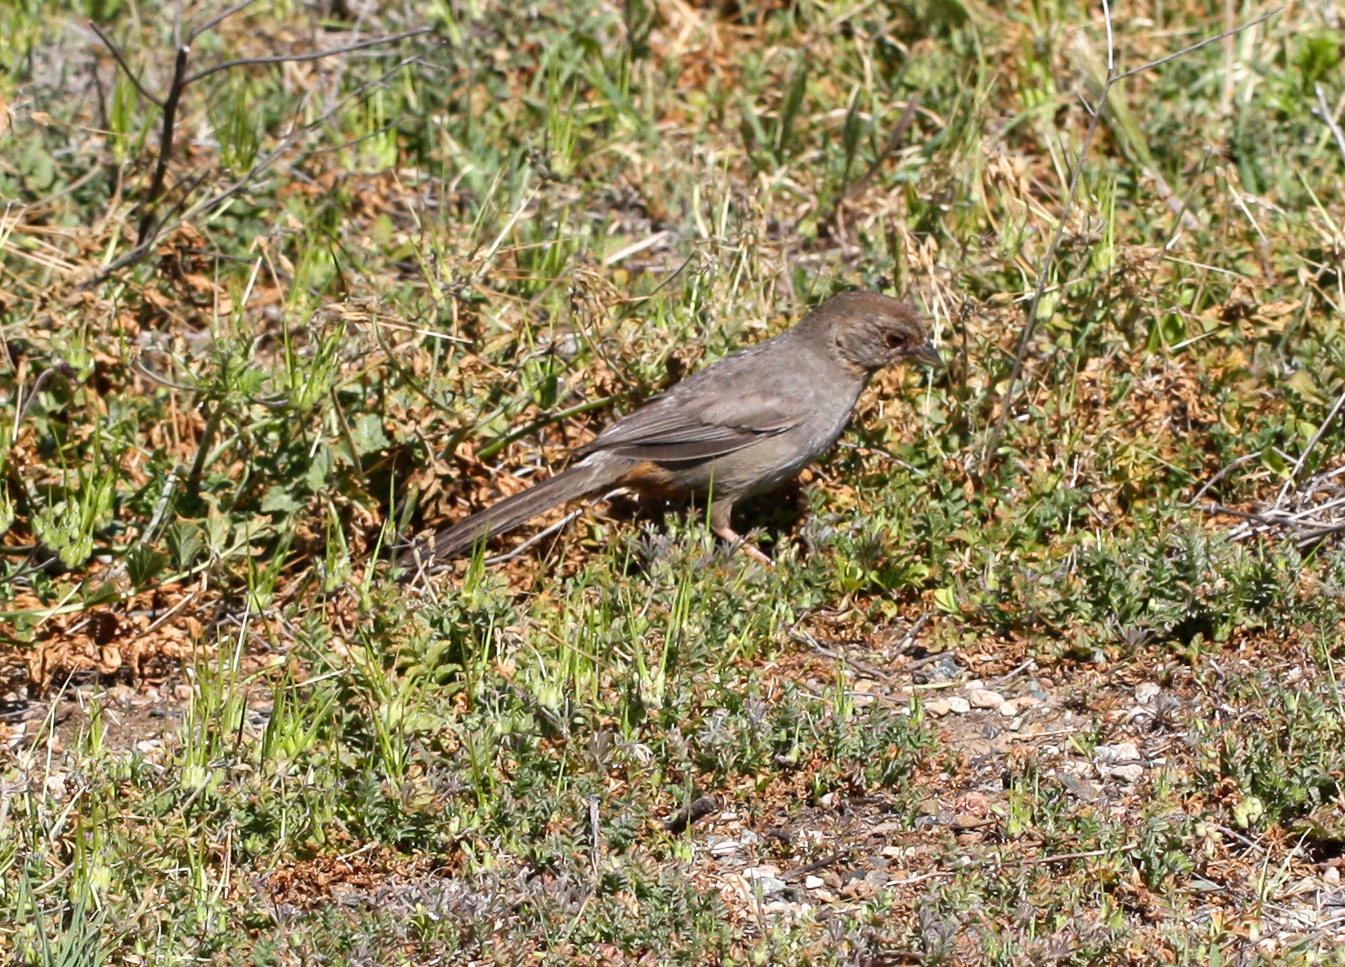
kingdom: Animalia
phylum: Chordata
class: Aves
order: Passeriformes
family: Passerellidae
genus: Melozone
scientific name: Melozone crissalis
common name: California towhee
